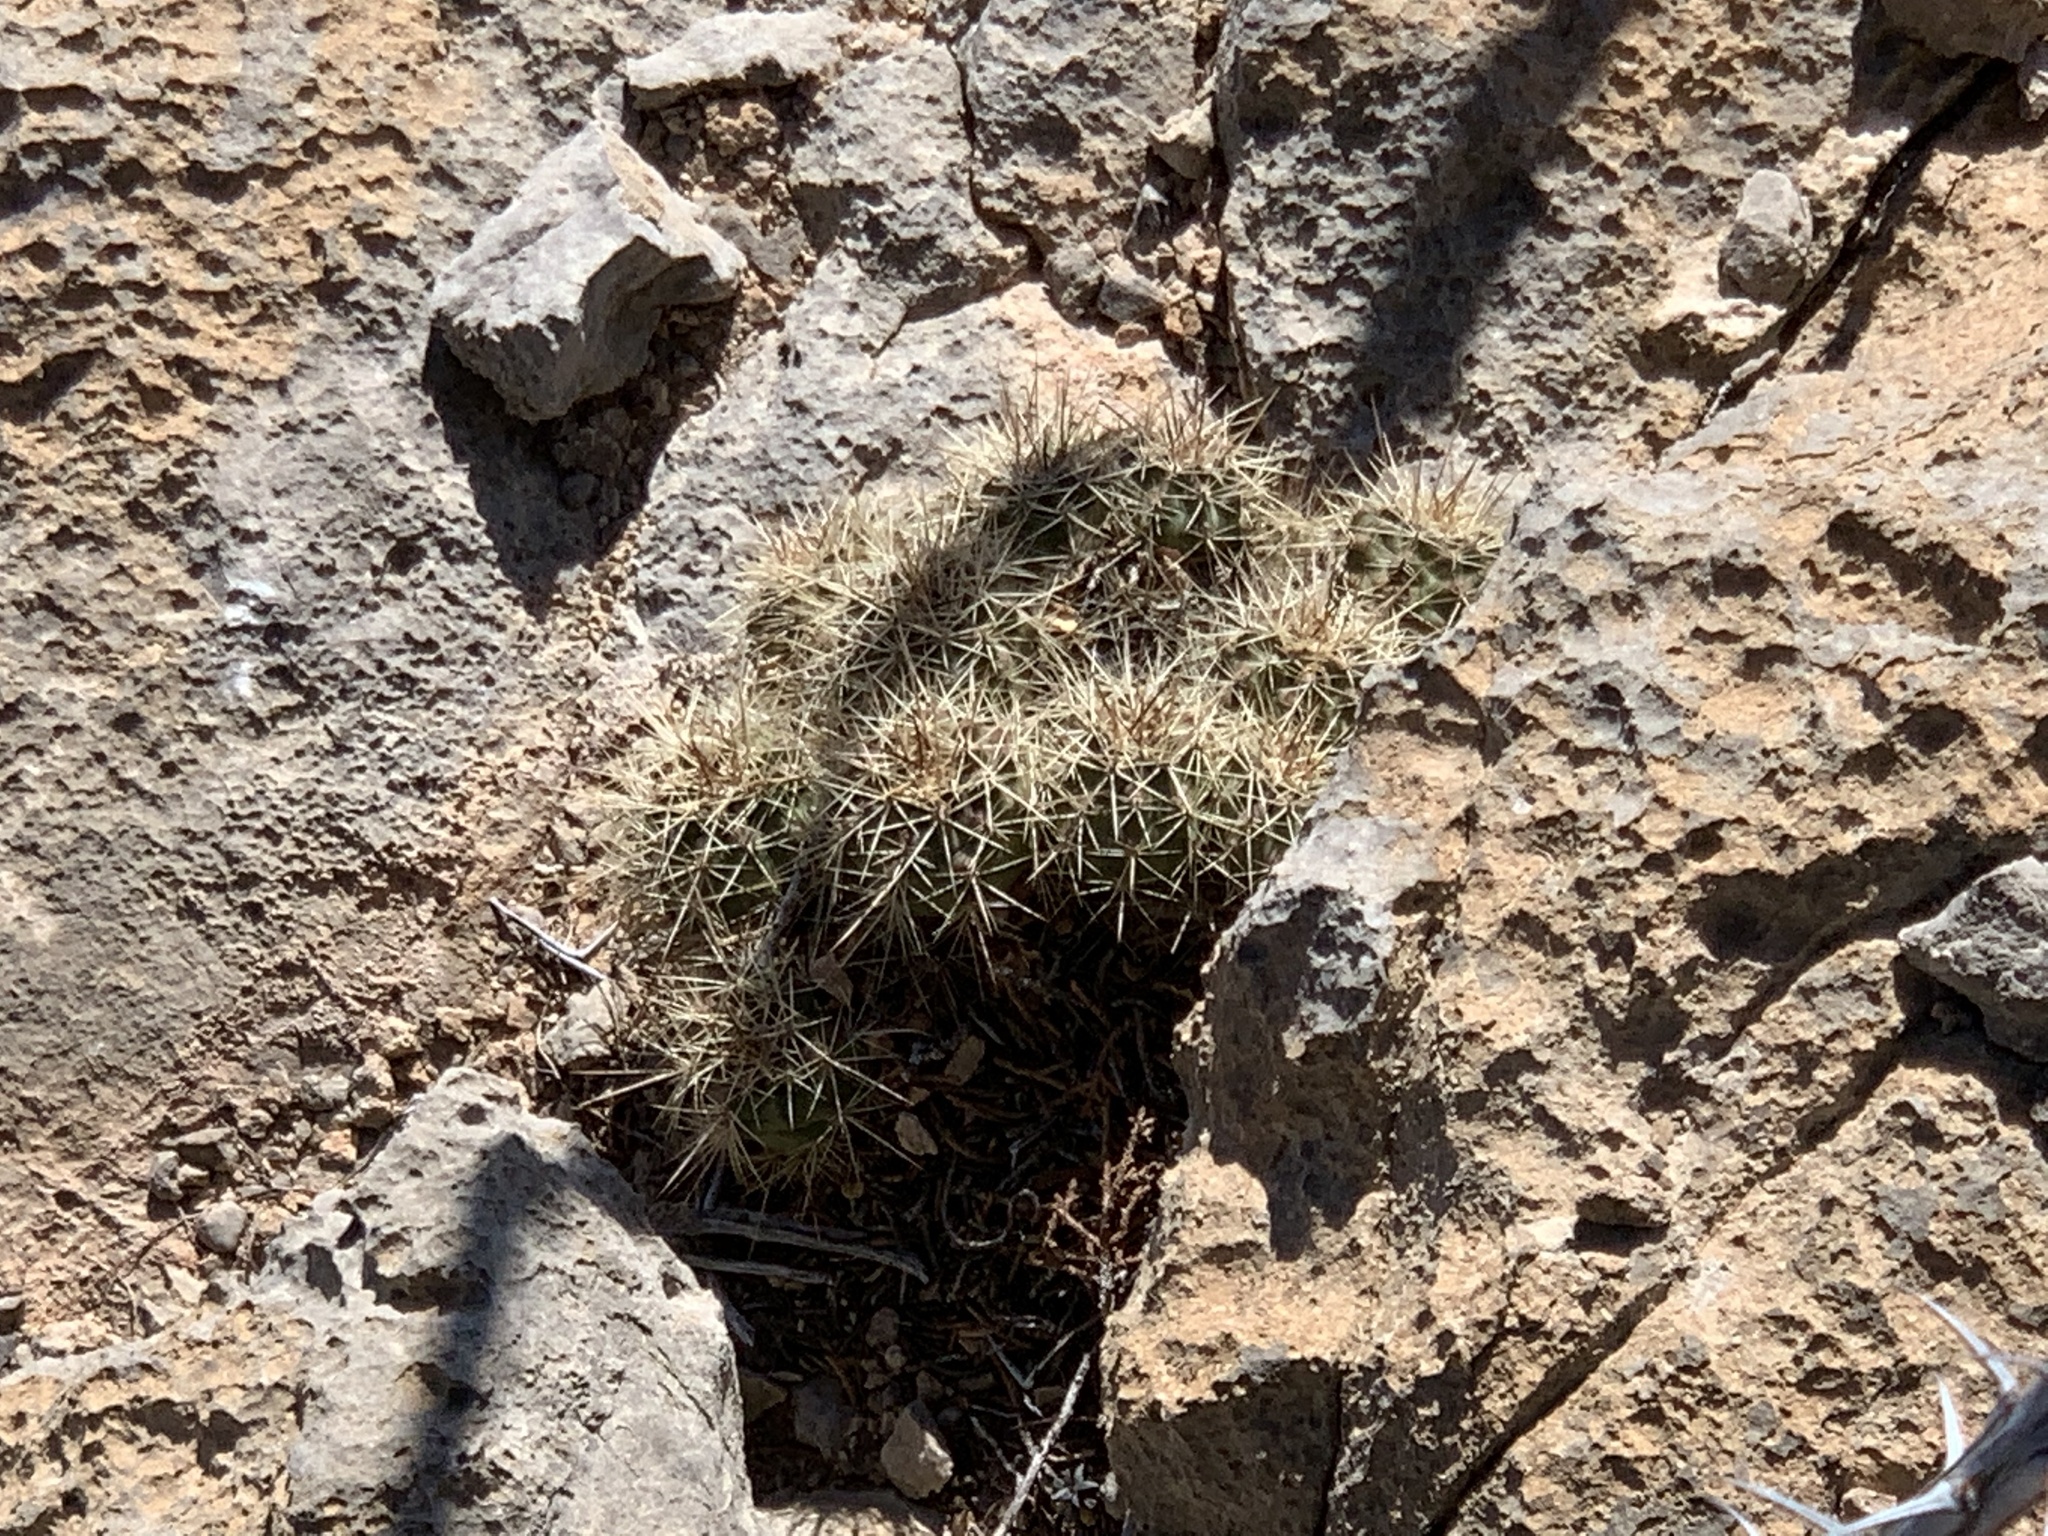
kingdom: Plantae
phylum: Tracheophyta
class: Magnoliopsida
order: Caryophyllales
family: Cactaceae
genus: Echinocereus
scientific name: Echinocereus coccineus
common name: Scarlet hedgehog cactus
